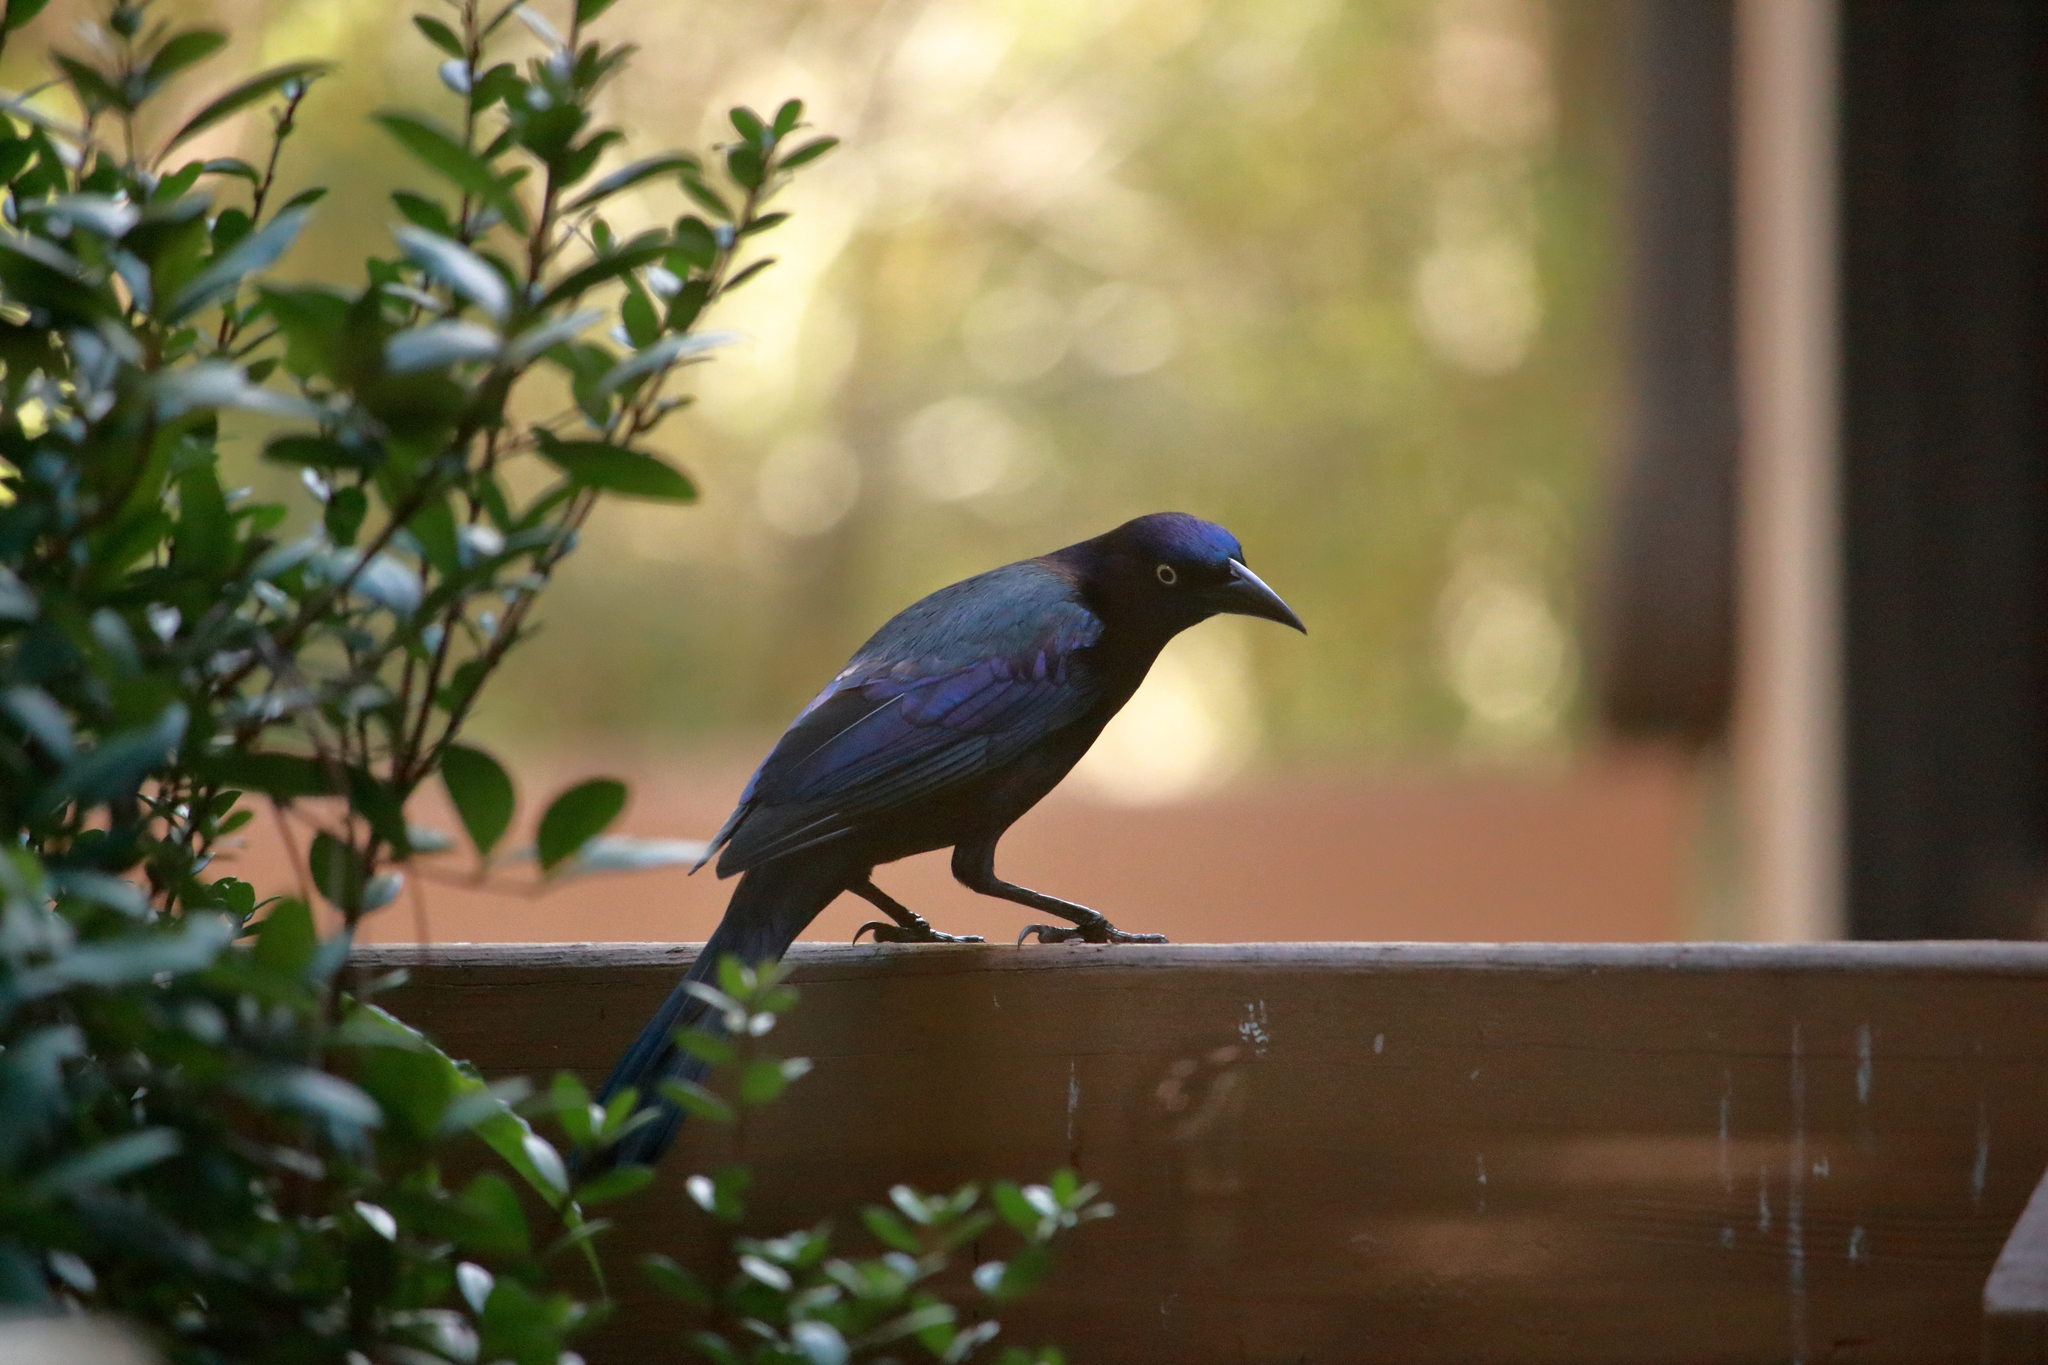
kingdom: Animalia
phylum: Chordata
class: Aves
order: Passeriformes
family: Icteridae
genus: Quiscalus
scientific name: Quiscalus quiscula
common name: Common grackle
